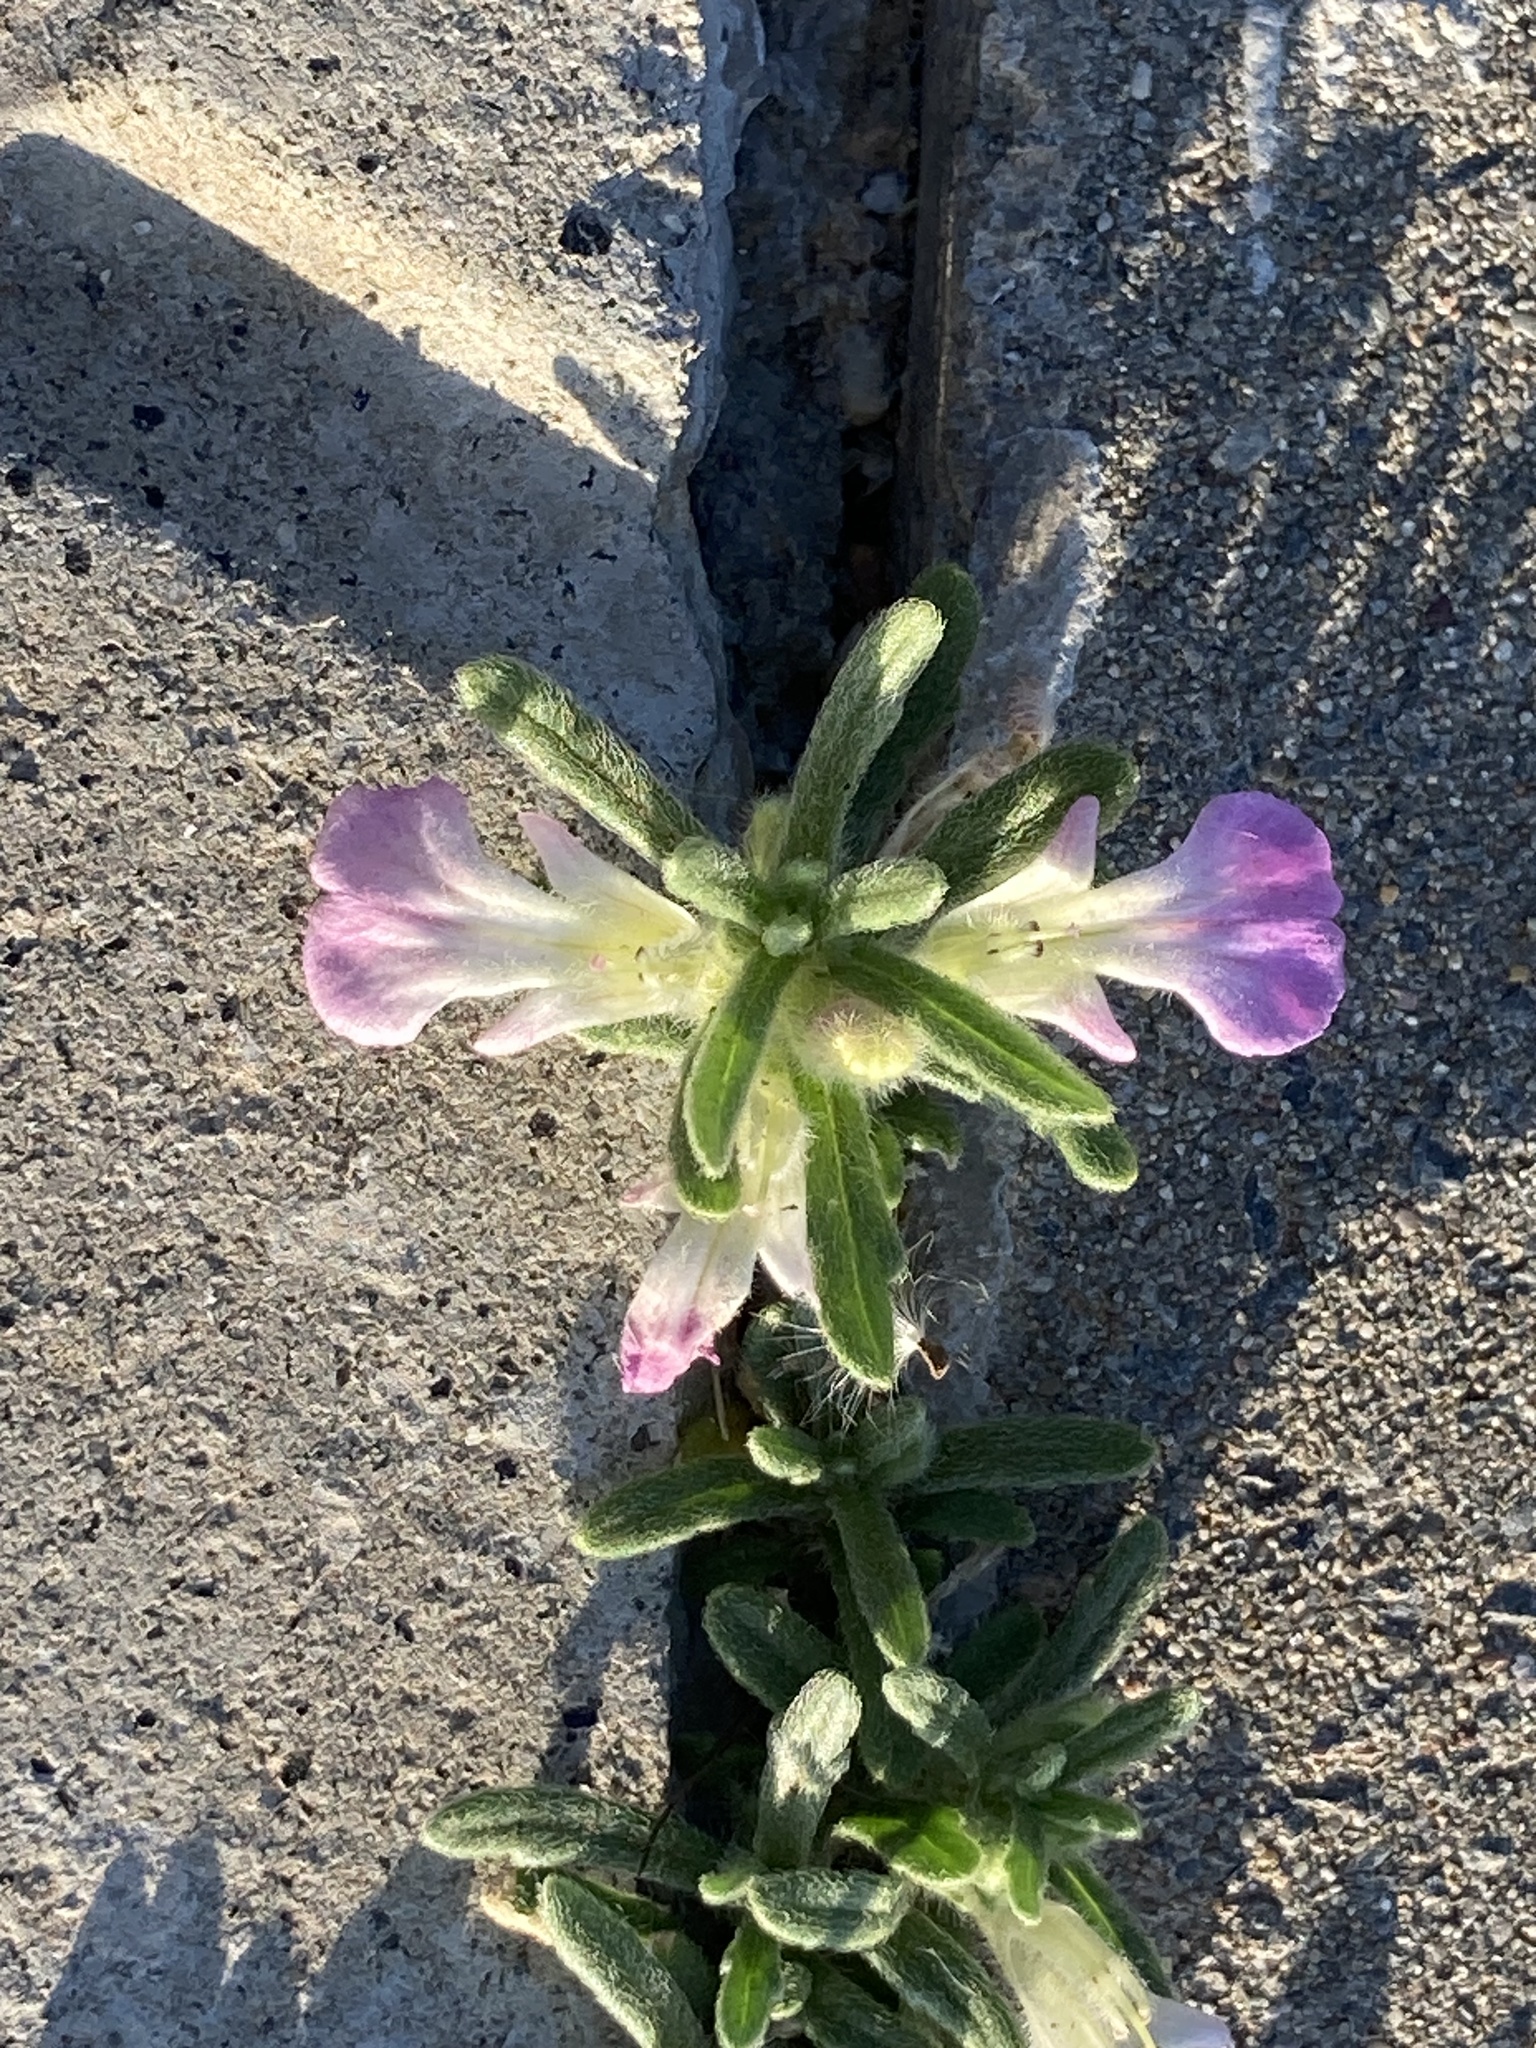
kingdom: Plantae
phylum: Tracheophyta
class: Magnoliopsida
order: Lamiales
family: Lamiaceae
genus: Ajuga
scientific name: Ajuga iva
